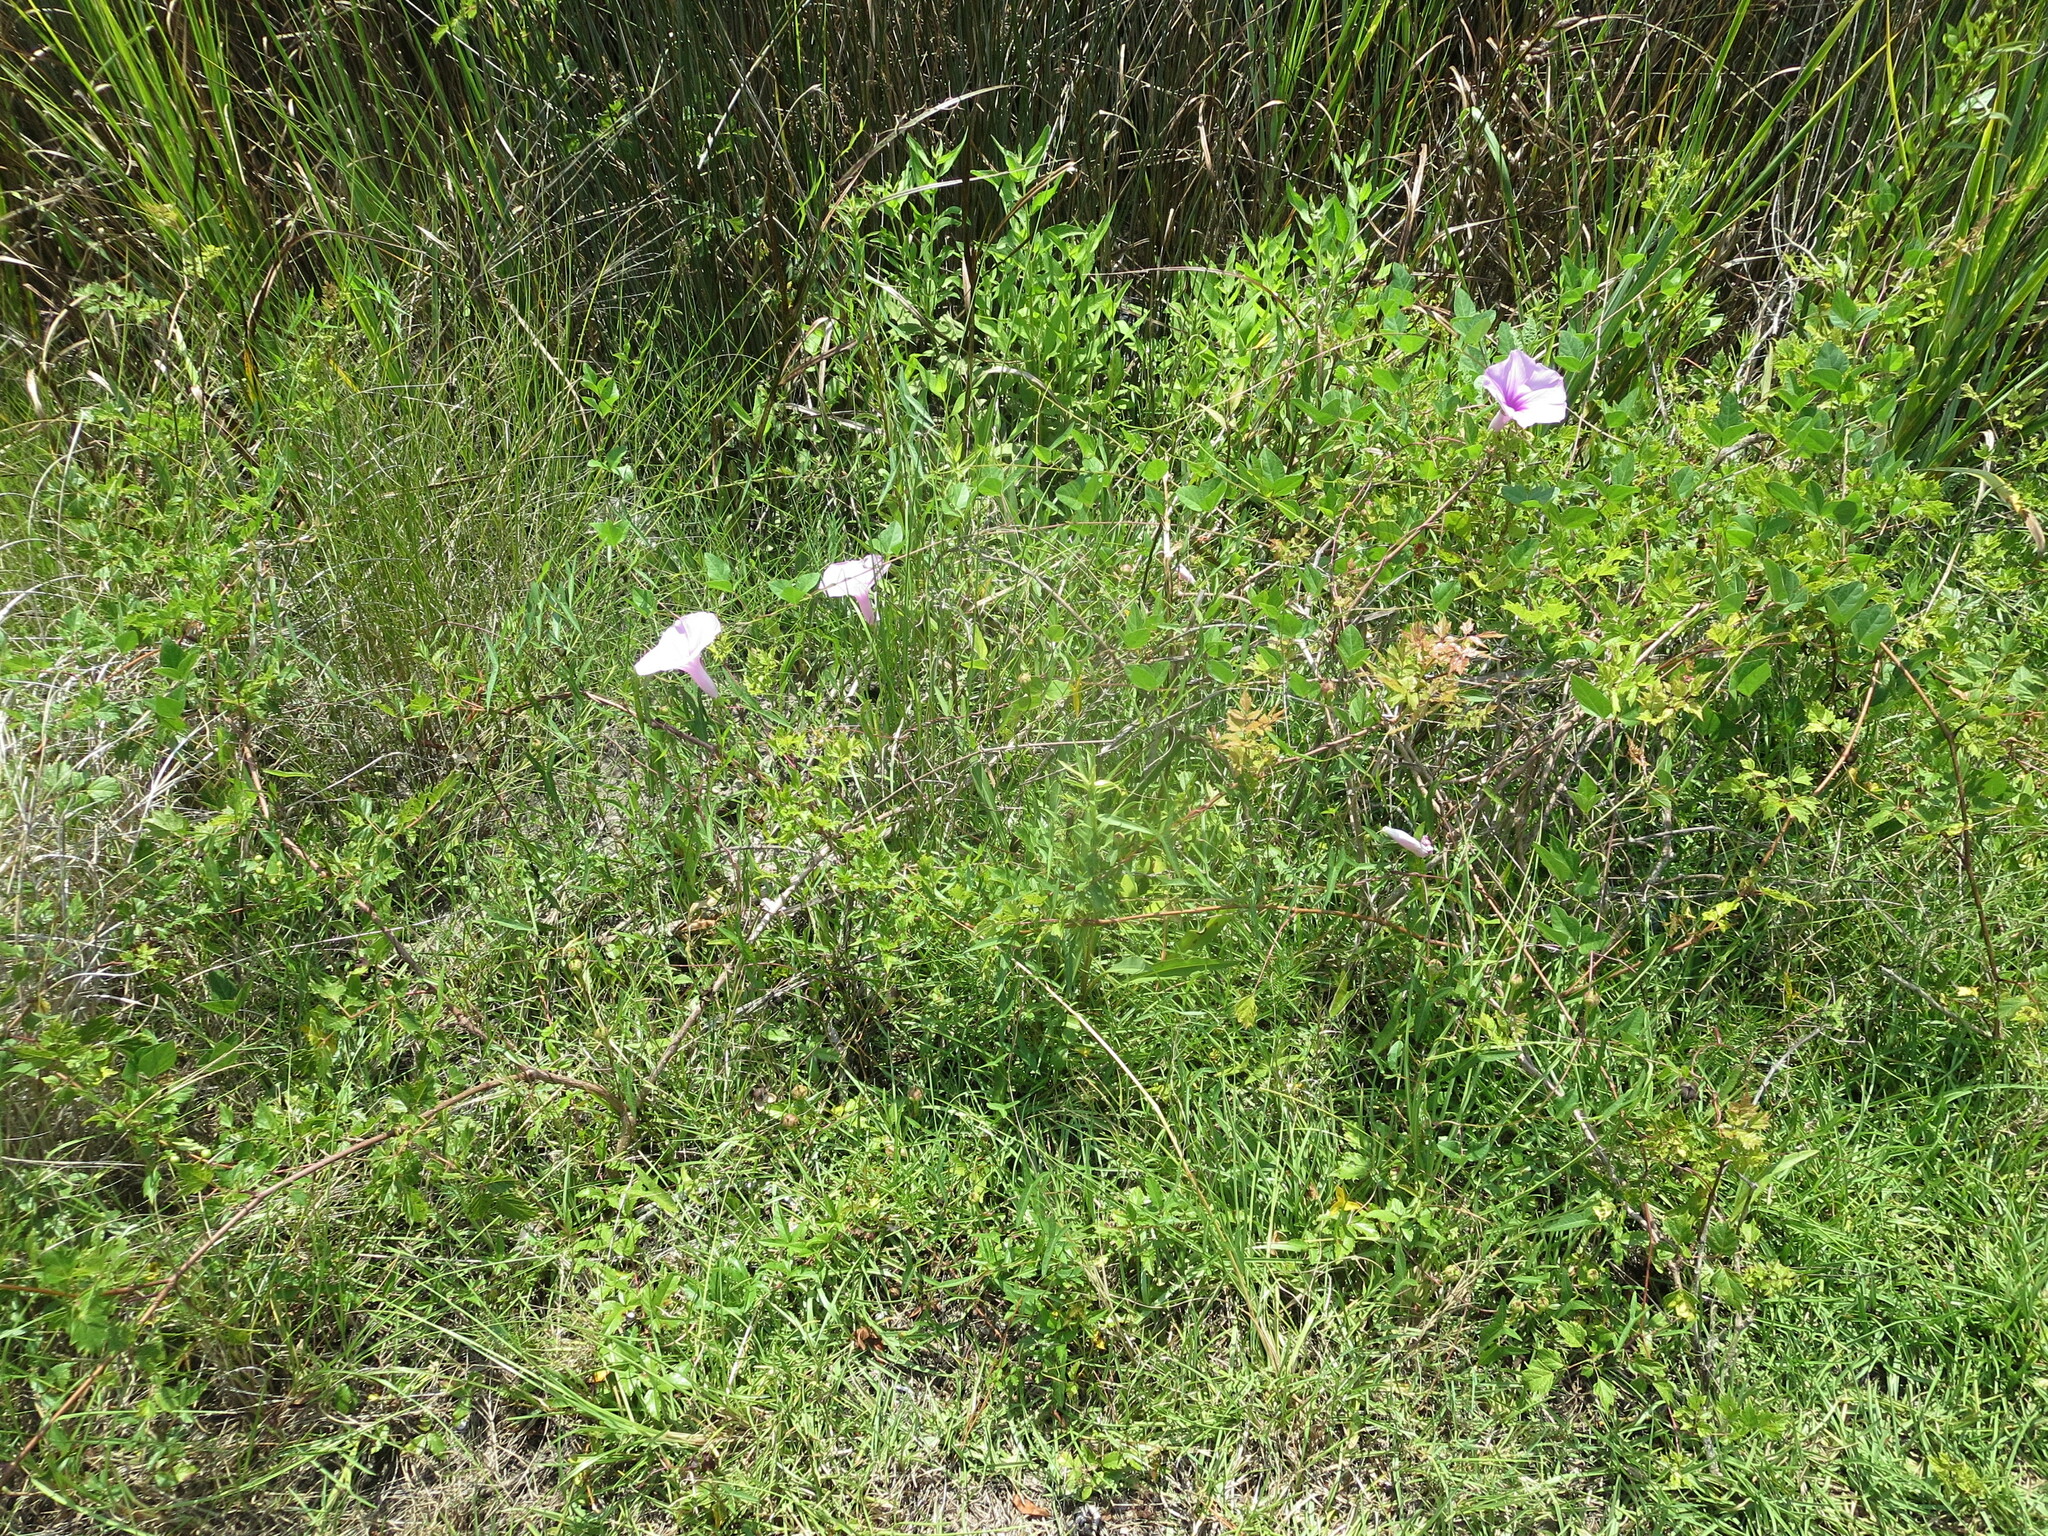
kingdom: Plantae
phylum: Tracheophyta
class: Magnoliopsida
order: Solanales
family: Convolvulaceae
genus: Ipomoea
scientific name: Ipomoea sagittata
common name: Saltmarsh morning glory
